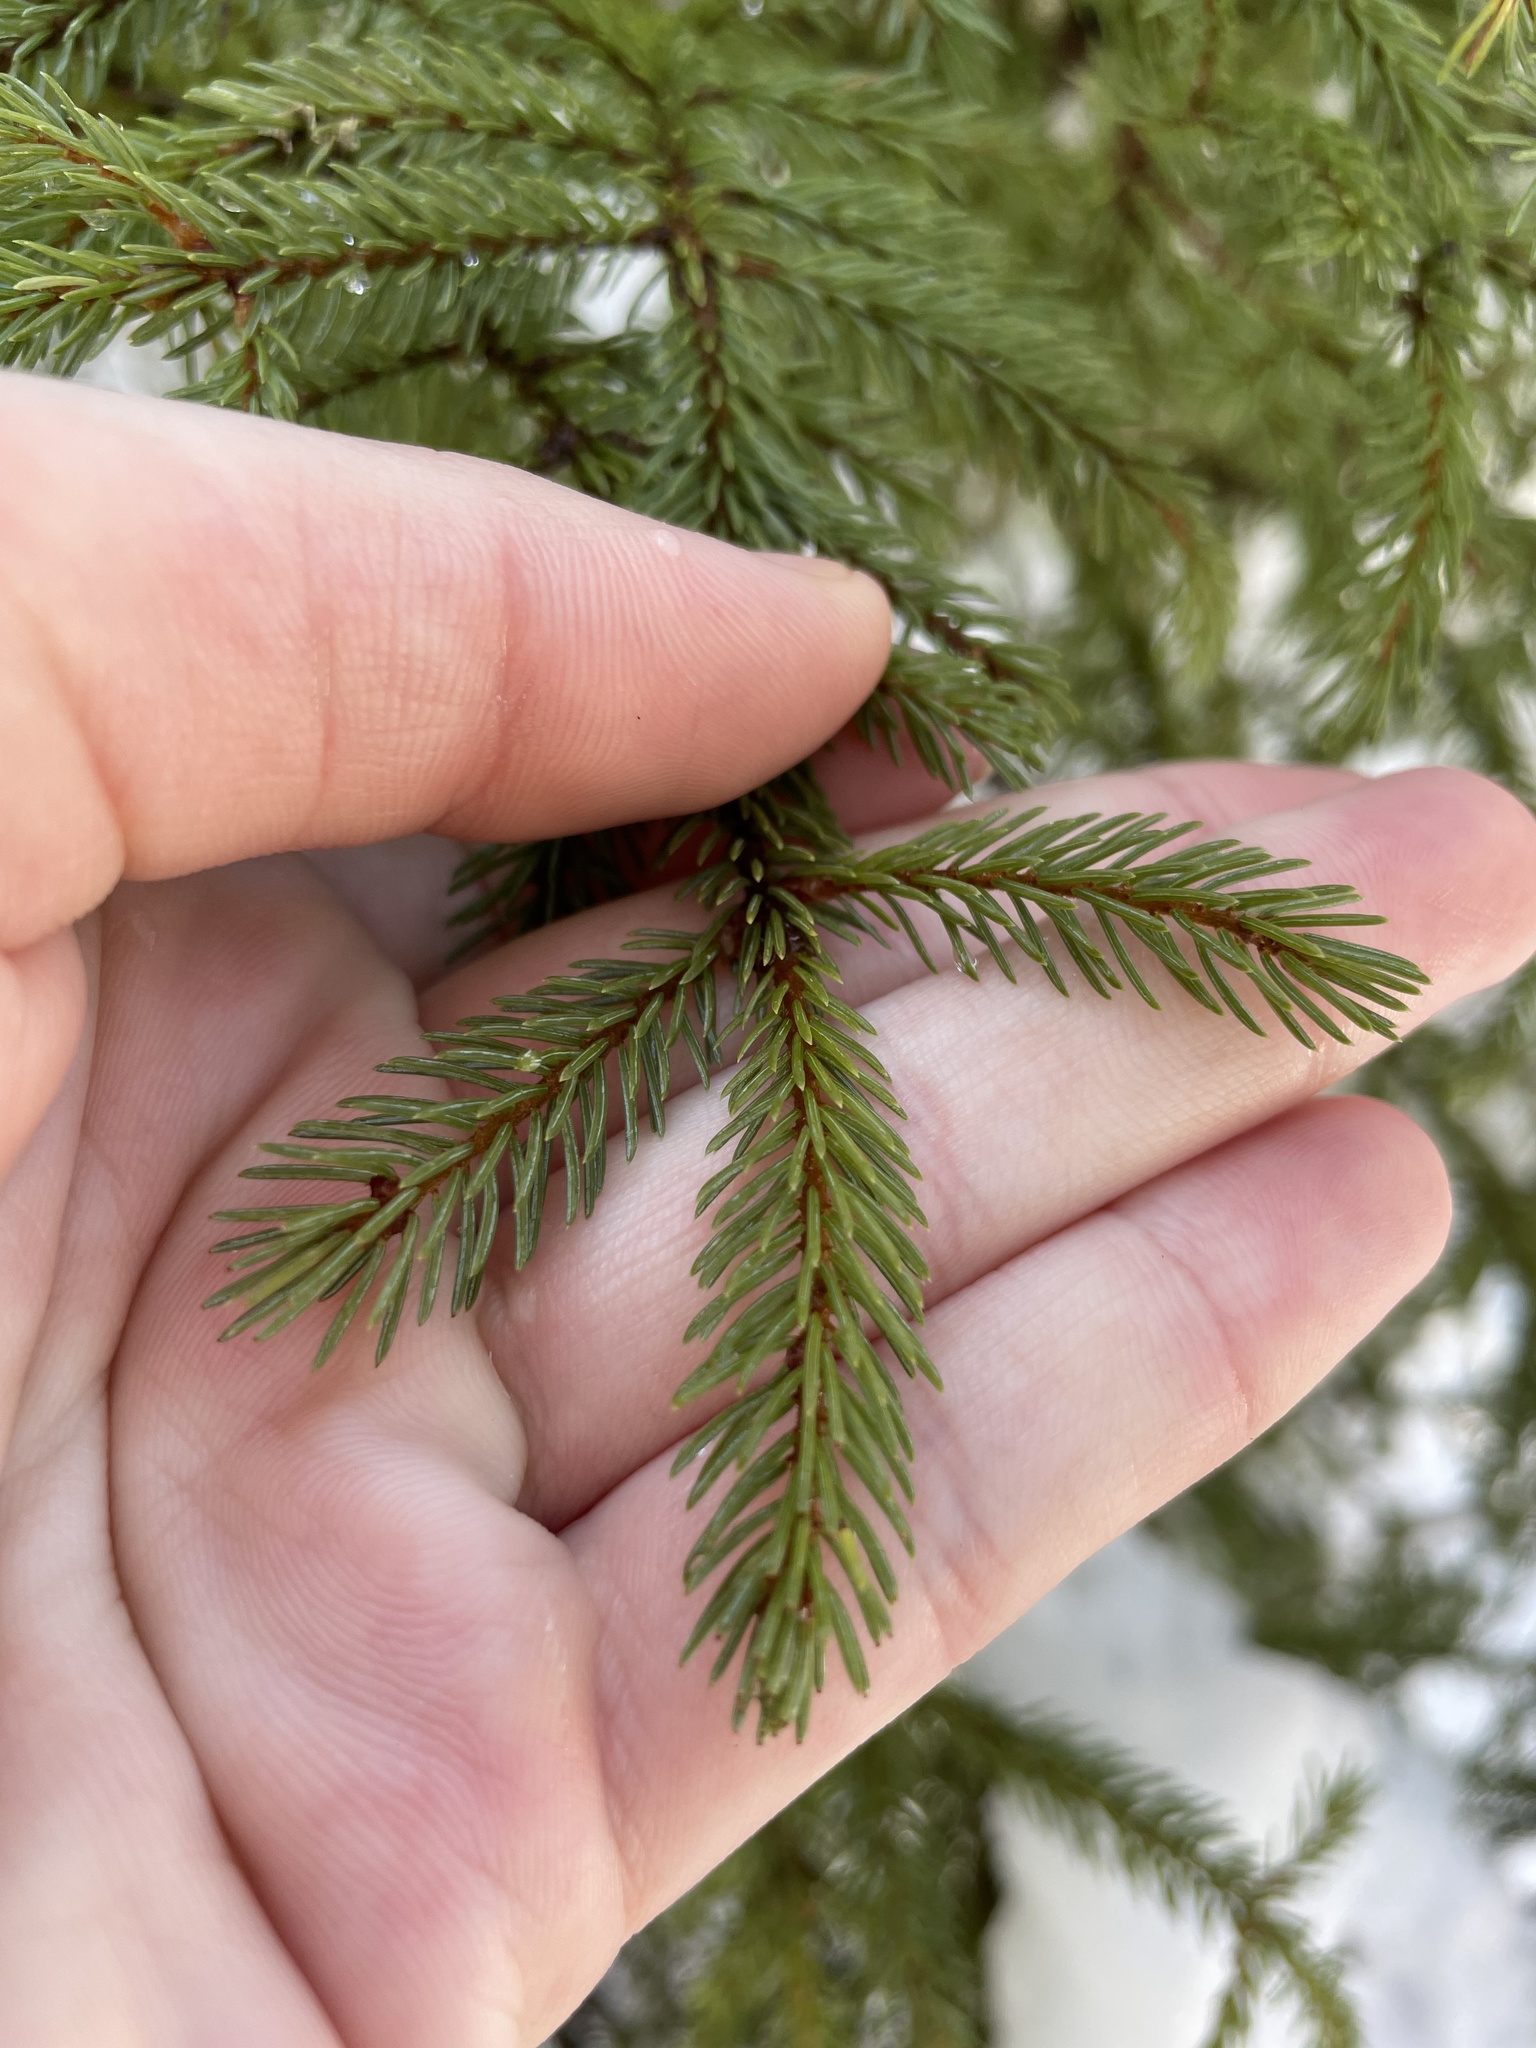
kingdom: Plantae
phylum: Tracheophyta
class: Pinopsida
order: Pinales
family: Pinaceae
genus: Picea
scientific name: Picea rubens
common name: Red spruce
